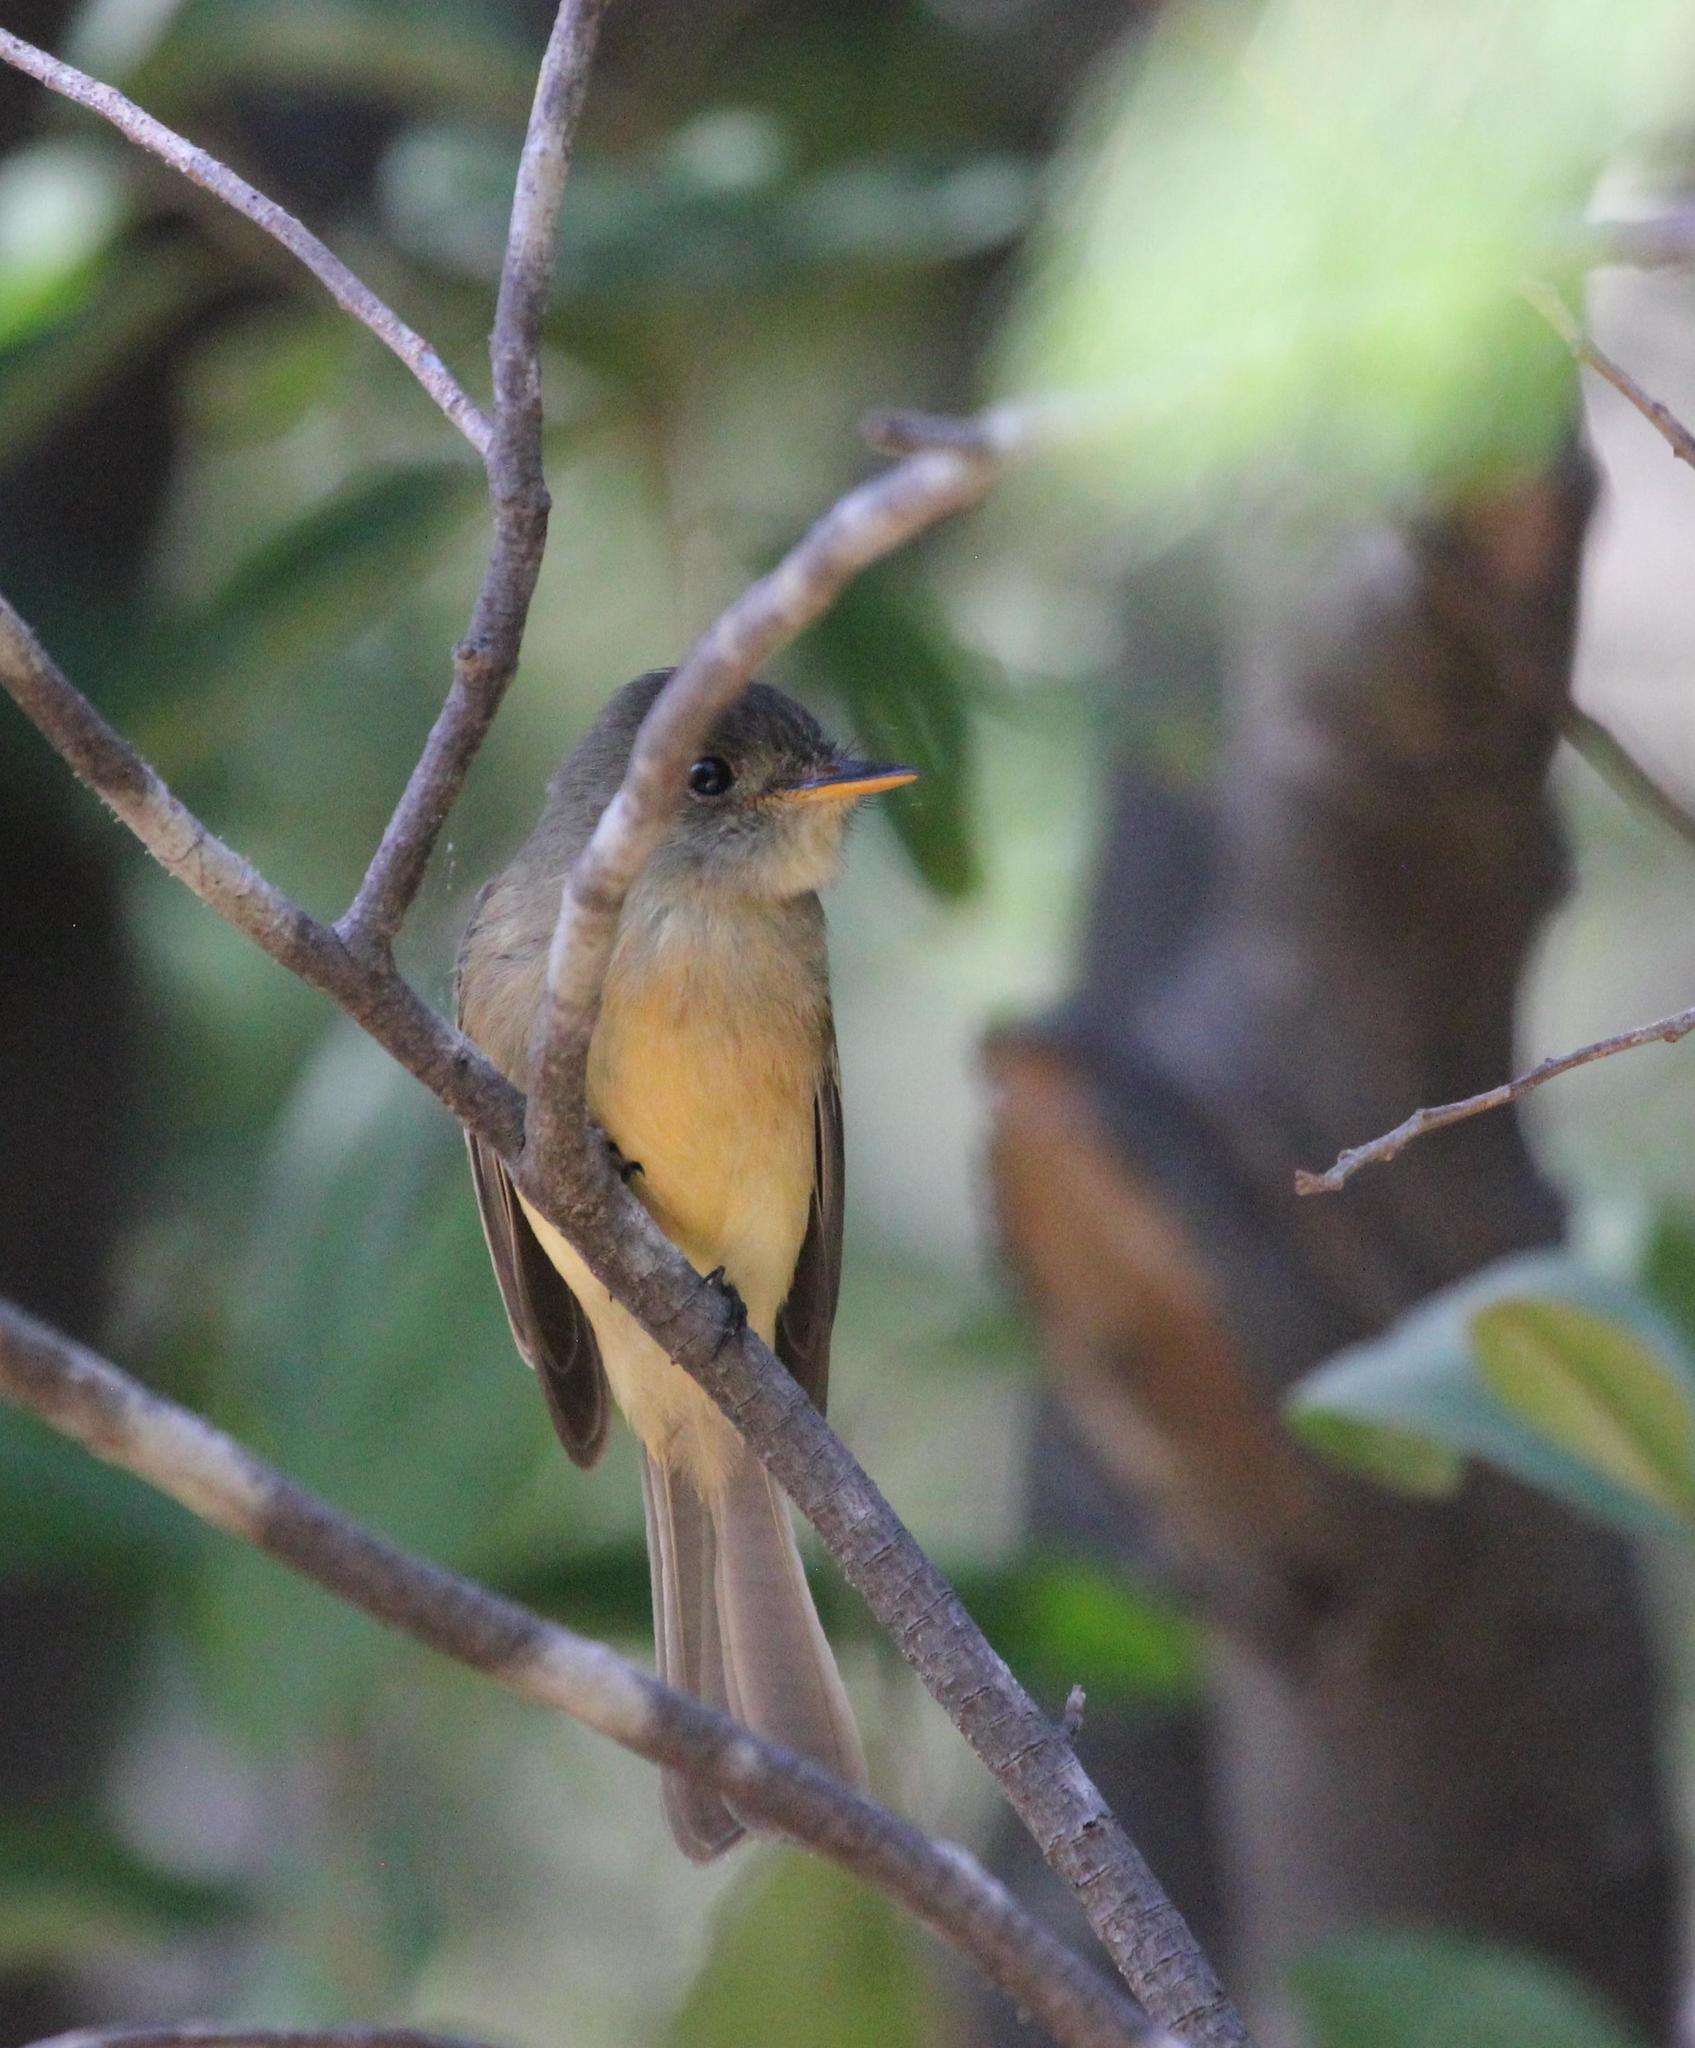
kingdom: Animalia
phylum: Chordata
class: Aves
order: Passeriformes
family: Tyrannidae
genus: Contopus
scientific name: Contopus latirostris
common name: Lesser antillean pewee
